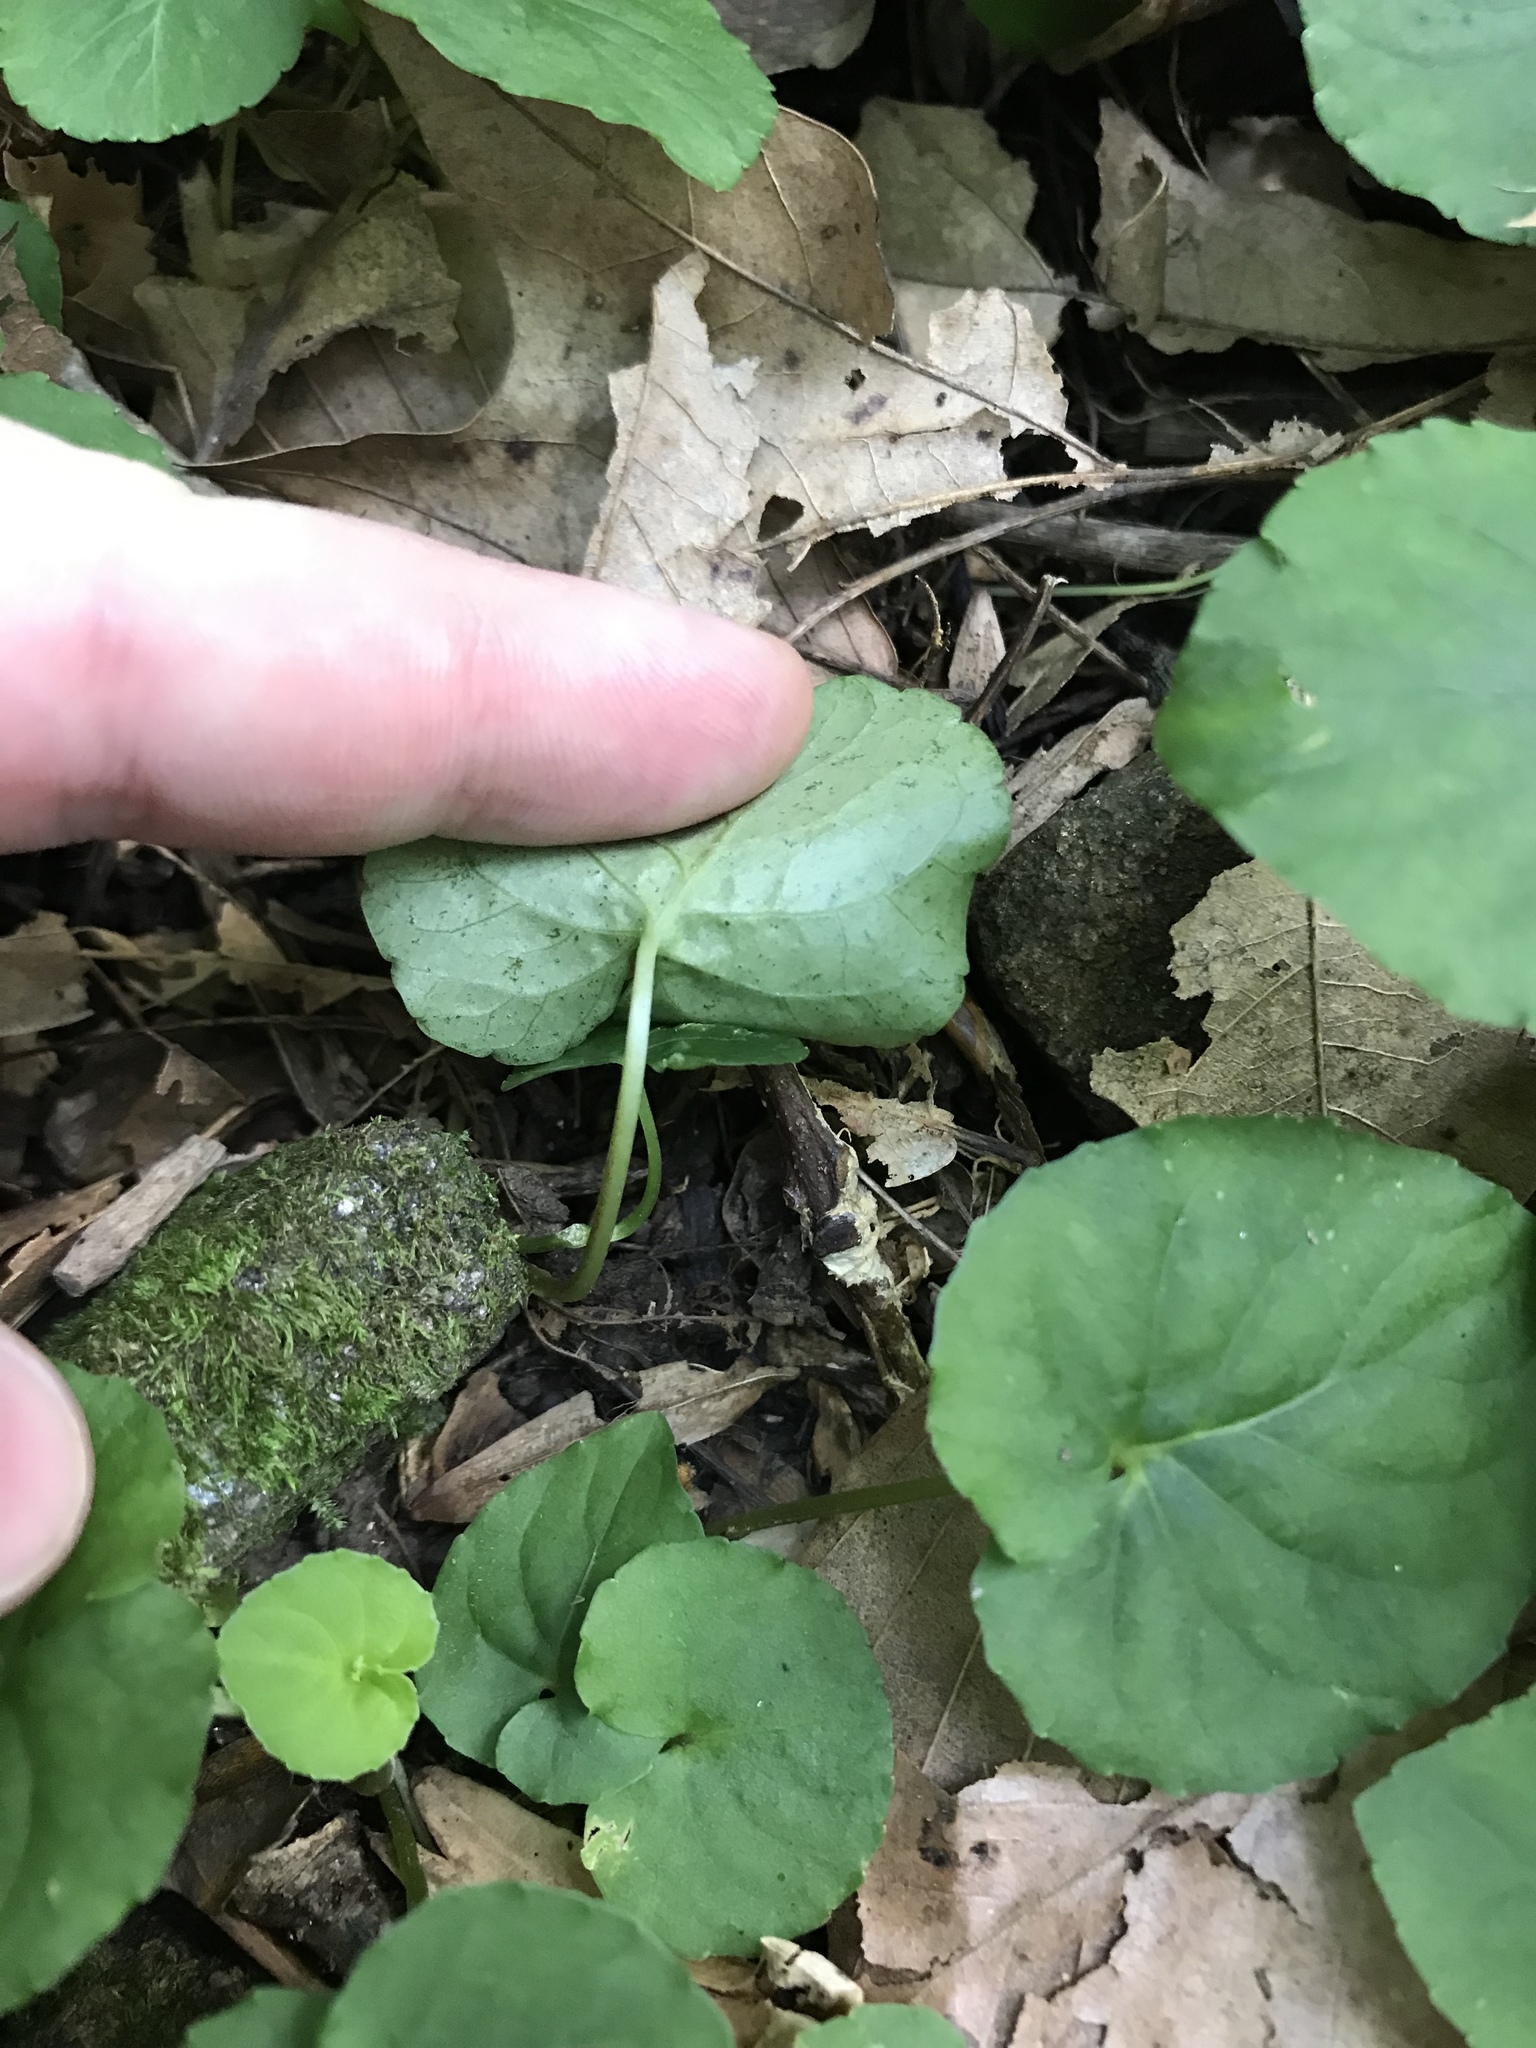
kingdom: Plantae
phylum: Tracheophyta
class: Magnoliopsida
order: Malpighiales
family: Violaceae
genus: Viola
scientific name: Viola blanda
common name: Sweet white violet
